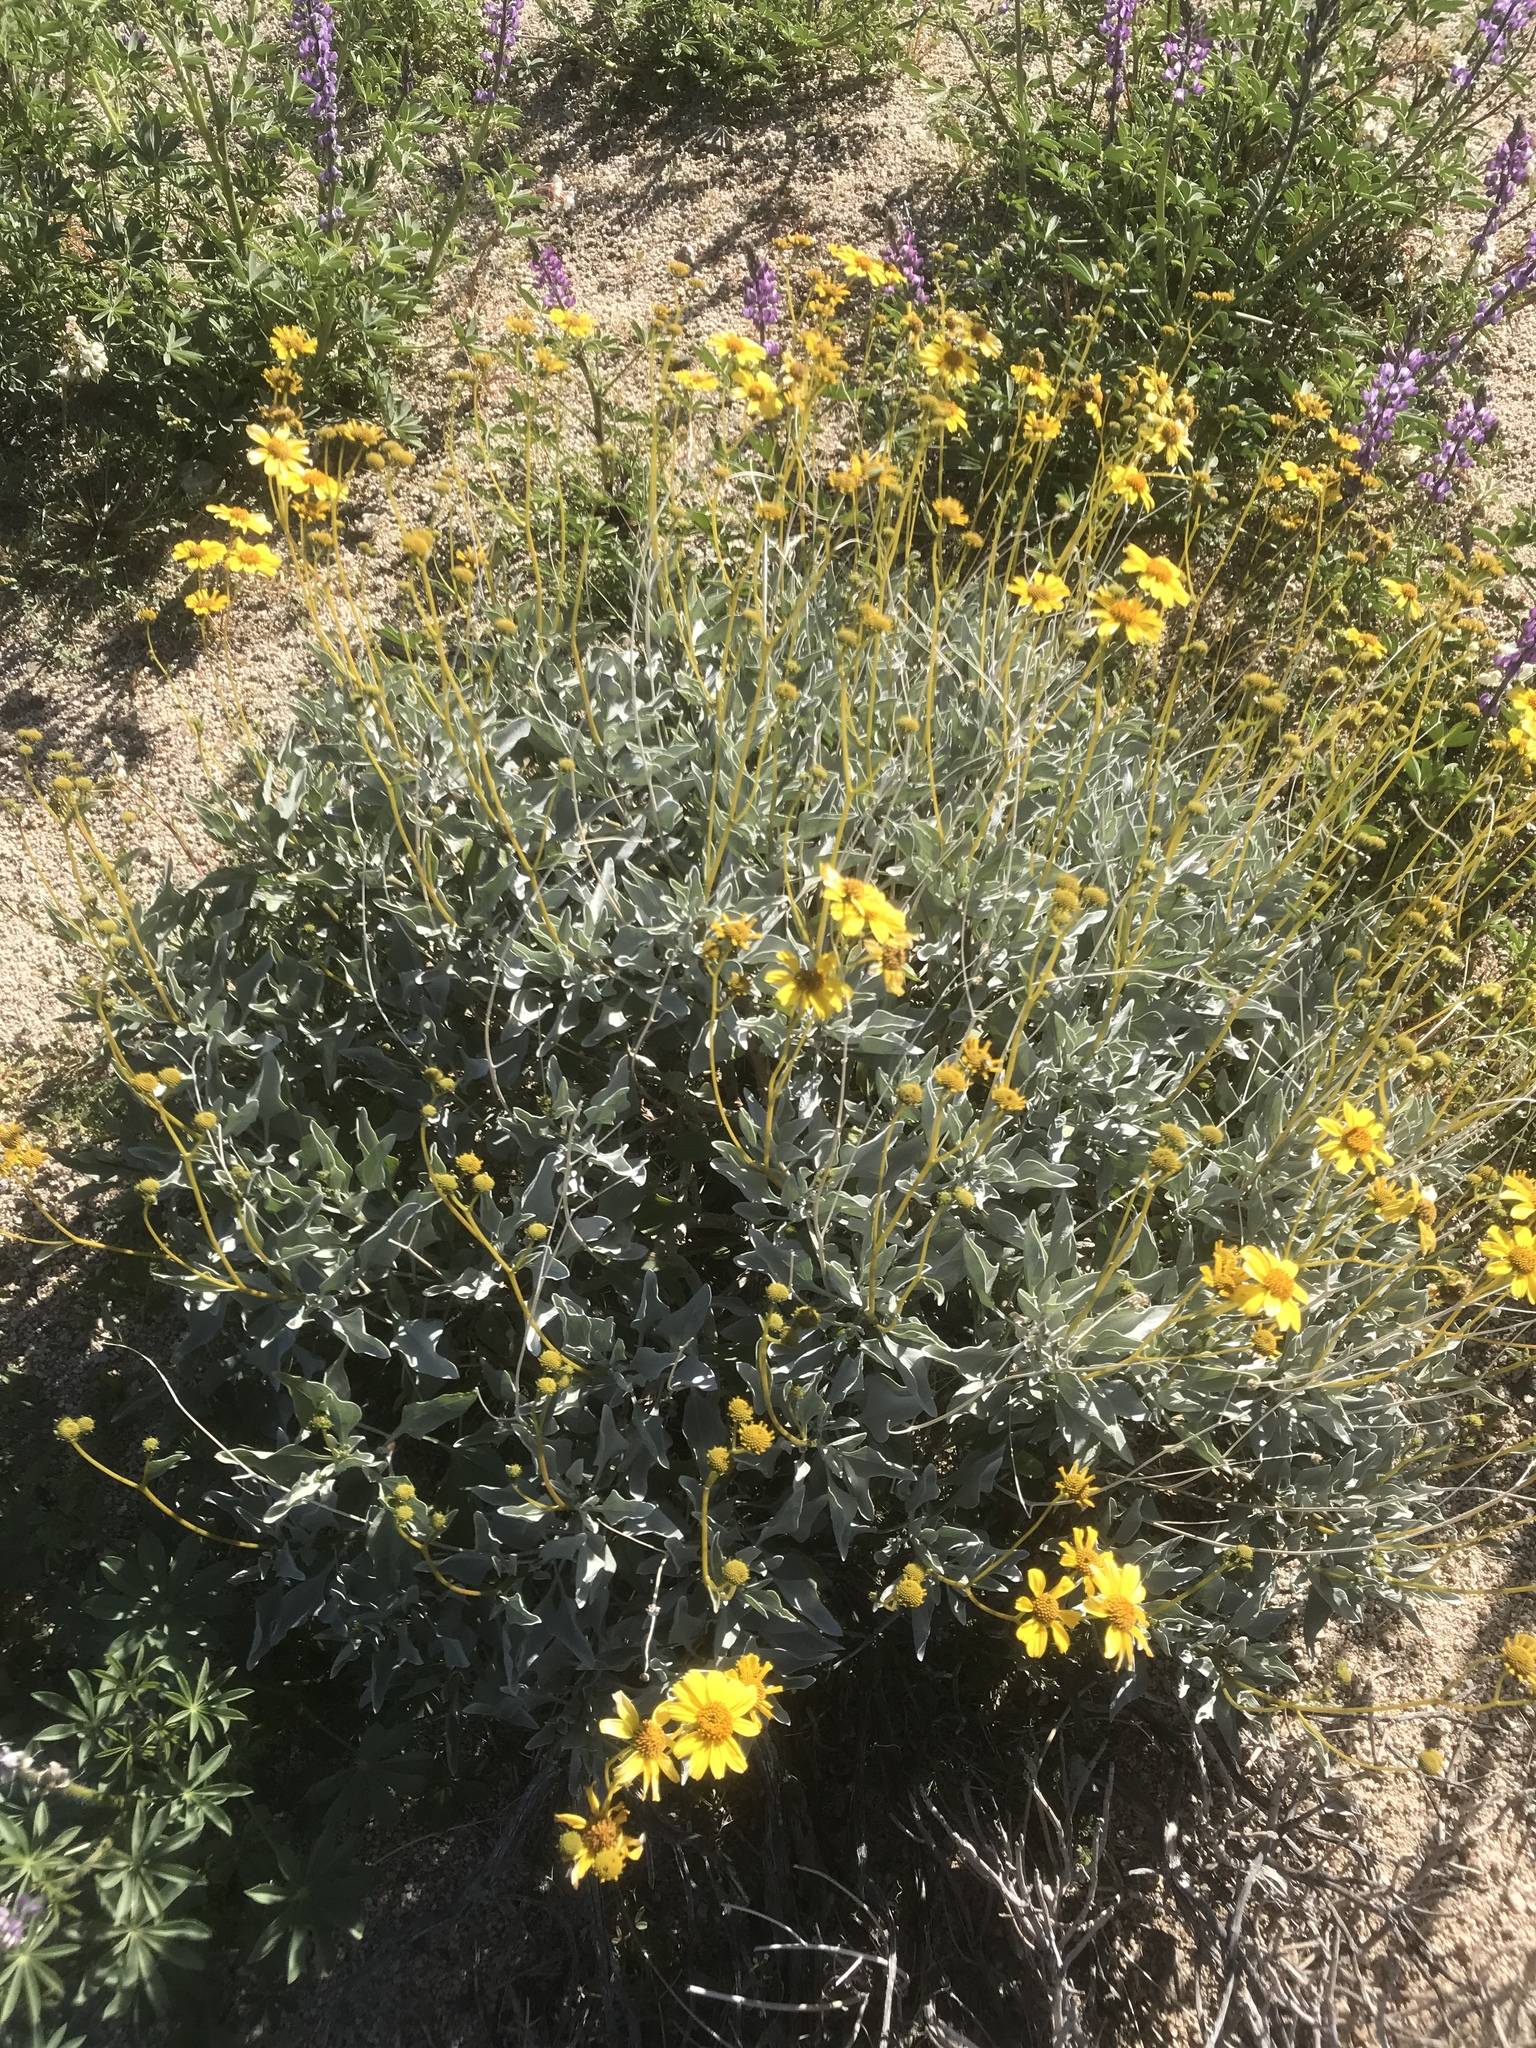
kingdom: Plantae
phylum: Tracheophyta
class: Magnoliopsida
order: Asterales
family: Asteraceae
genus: Encelia
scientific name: Encelia farinosa
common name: Brittlebush
